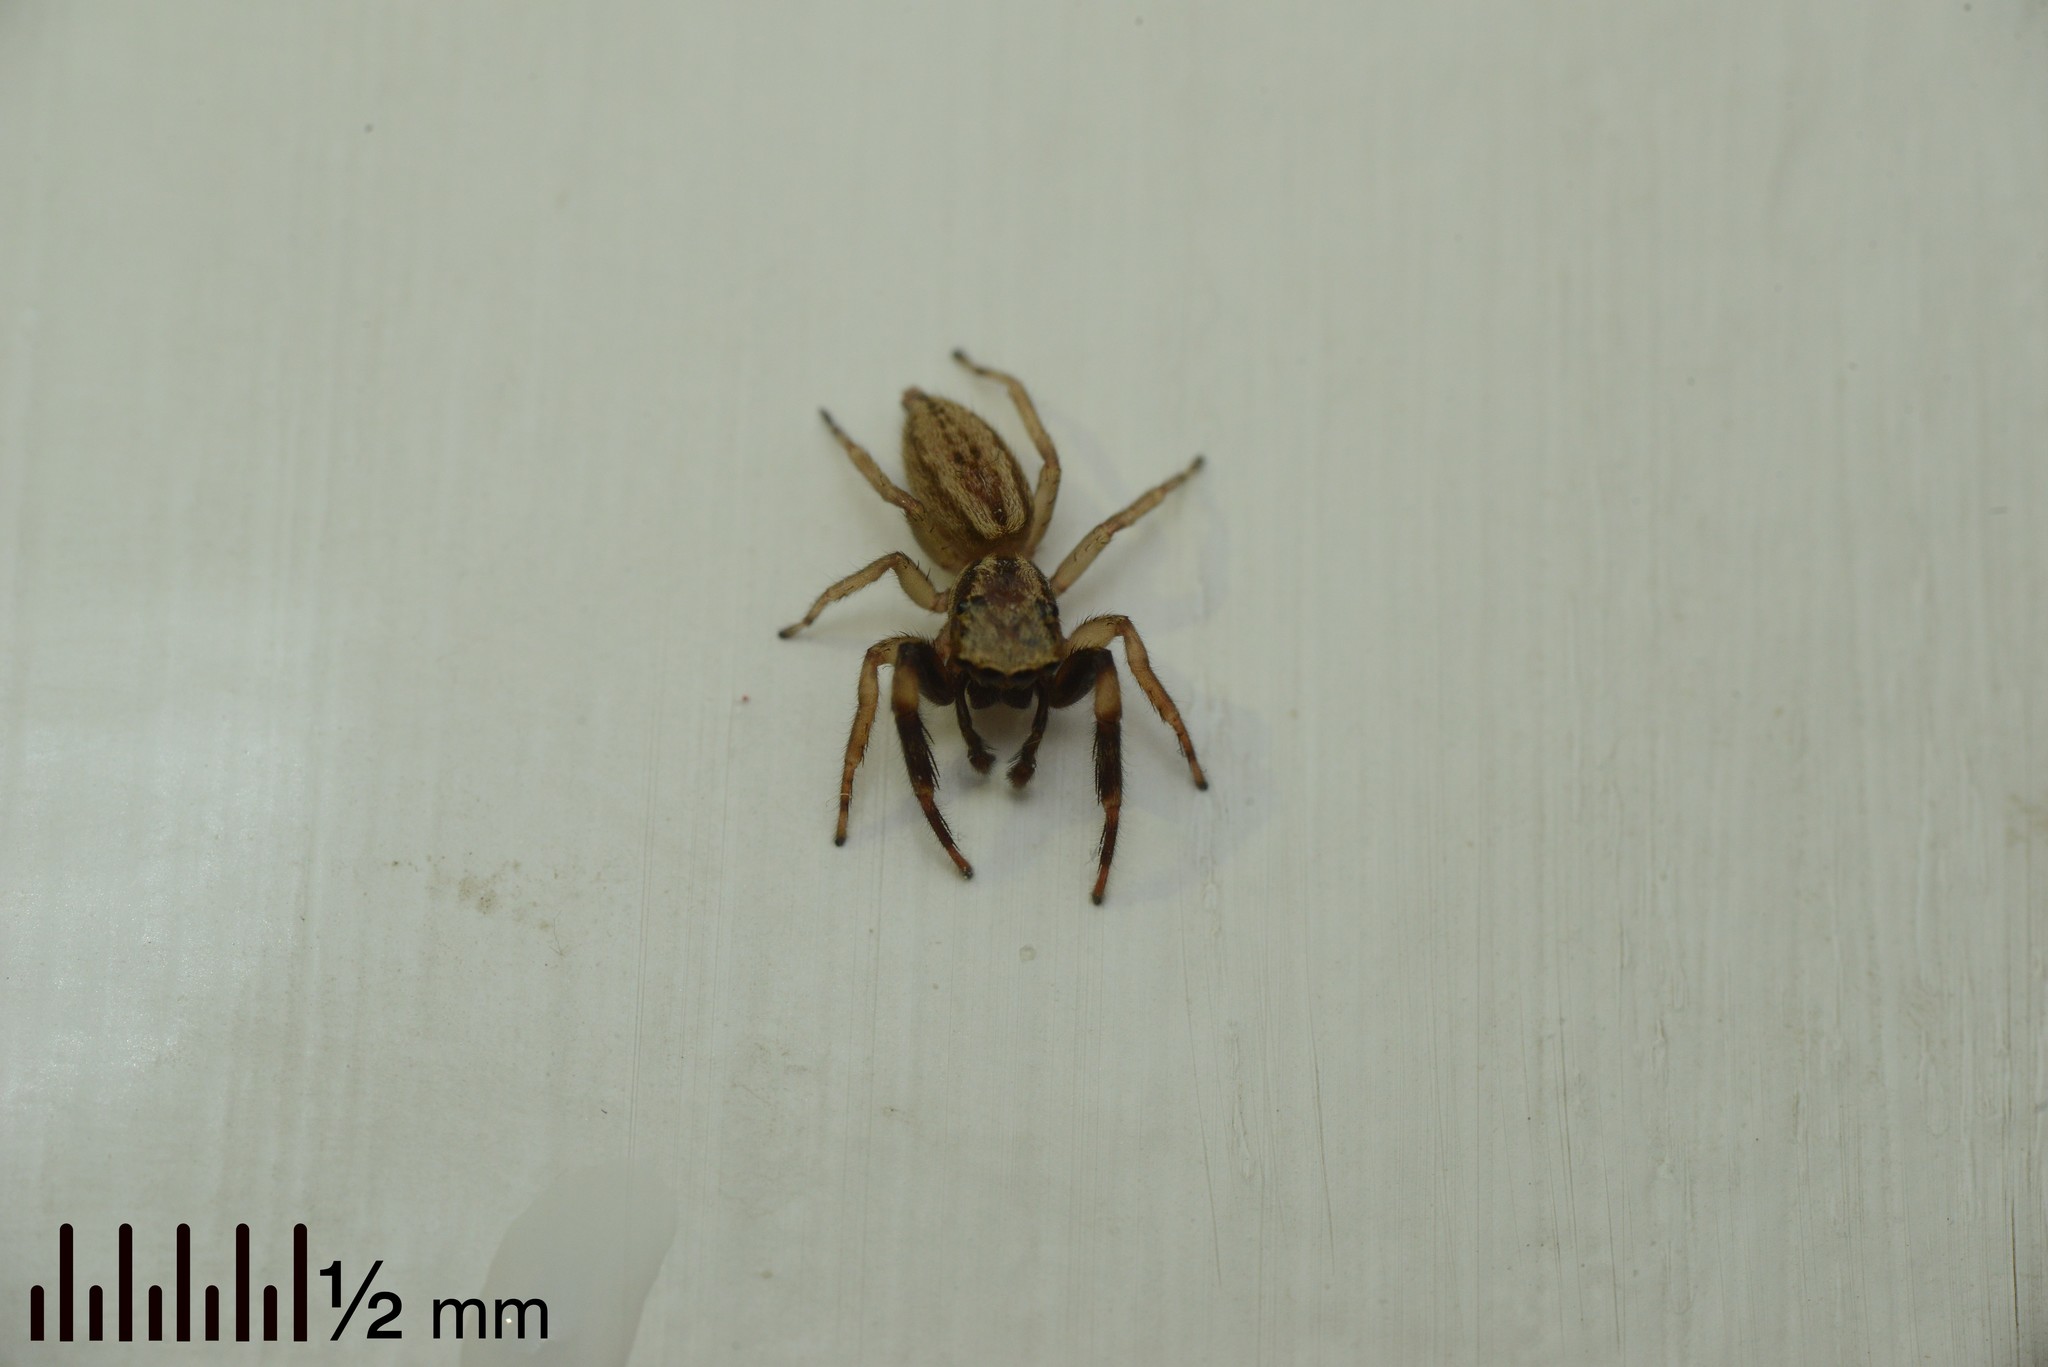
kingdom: Animalia
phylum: Arthropoda
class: Arachnida
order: Araneae
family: Salticidae
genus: Trite
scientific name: Trite auricoma
